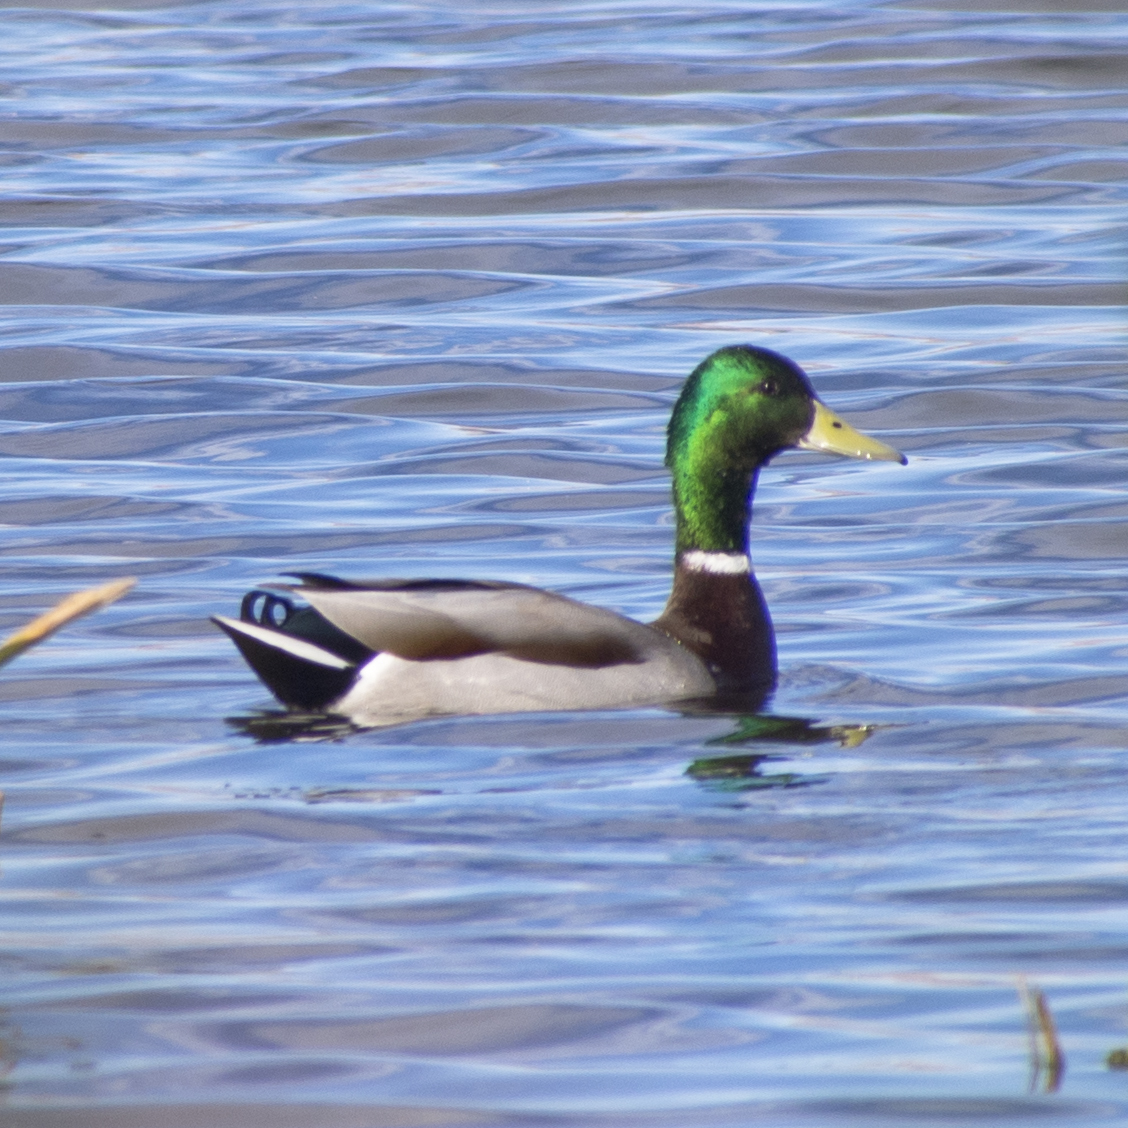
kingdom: Animalia
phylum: Chordata
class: Aves
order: Anseriformes
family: Anatidae
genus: Anas
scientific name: Anas platyrhynchos
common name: Mallard
